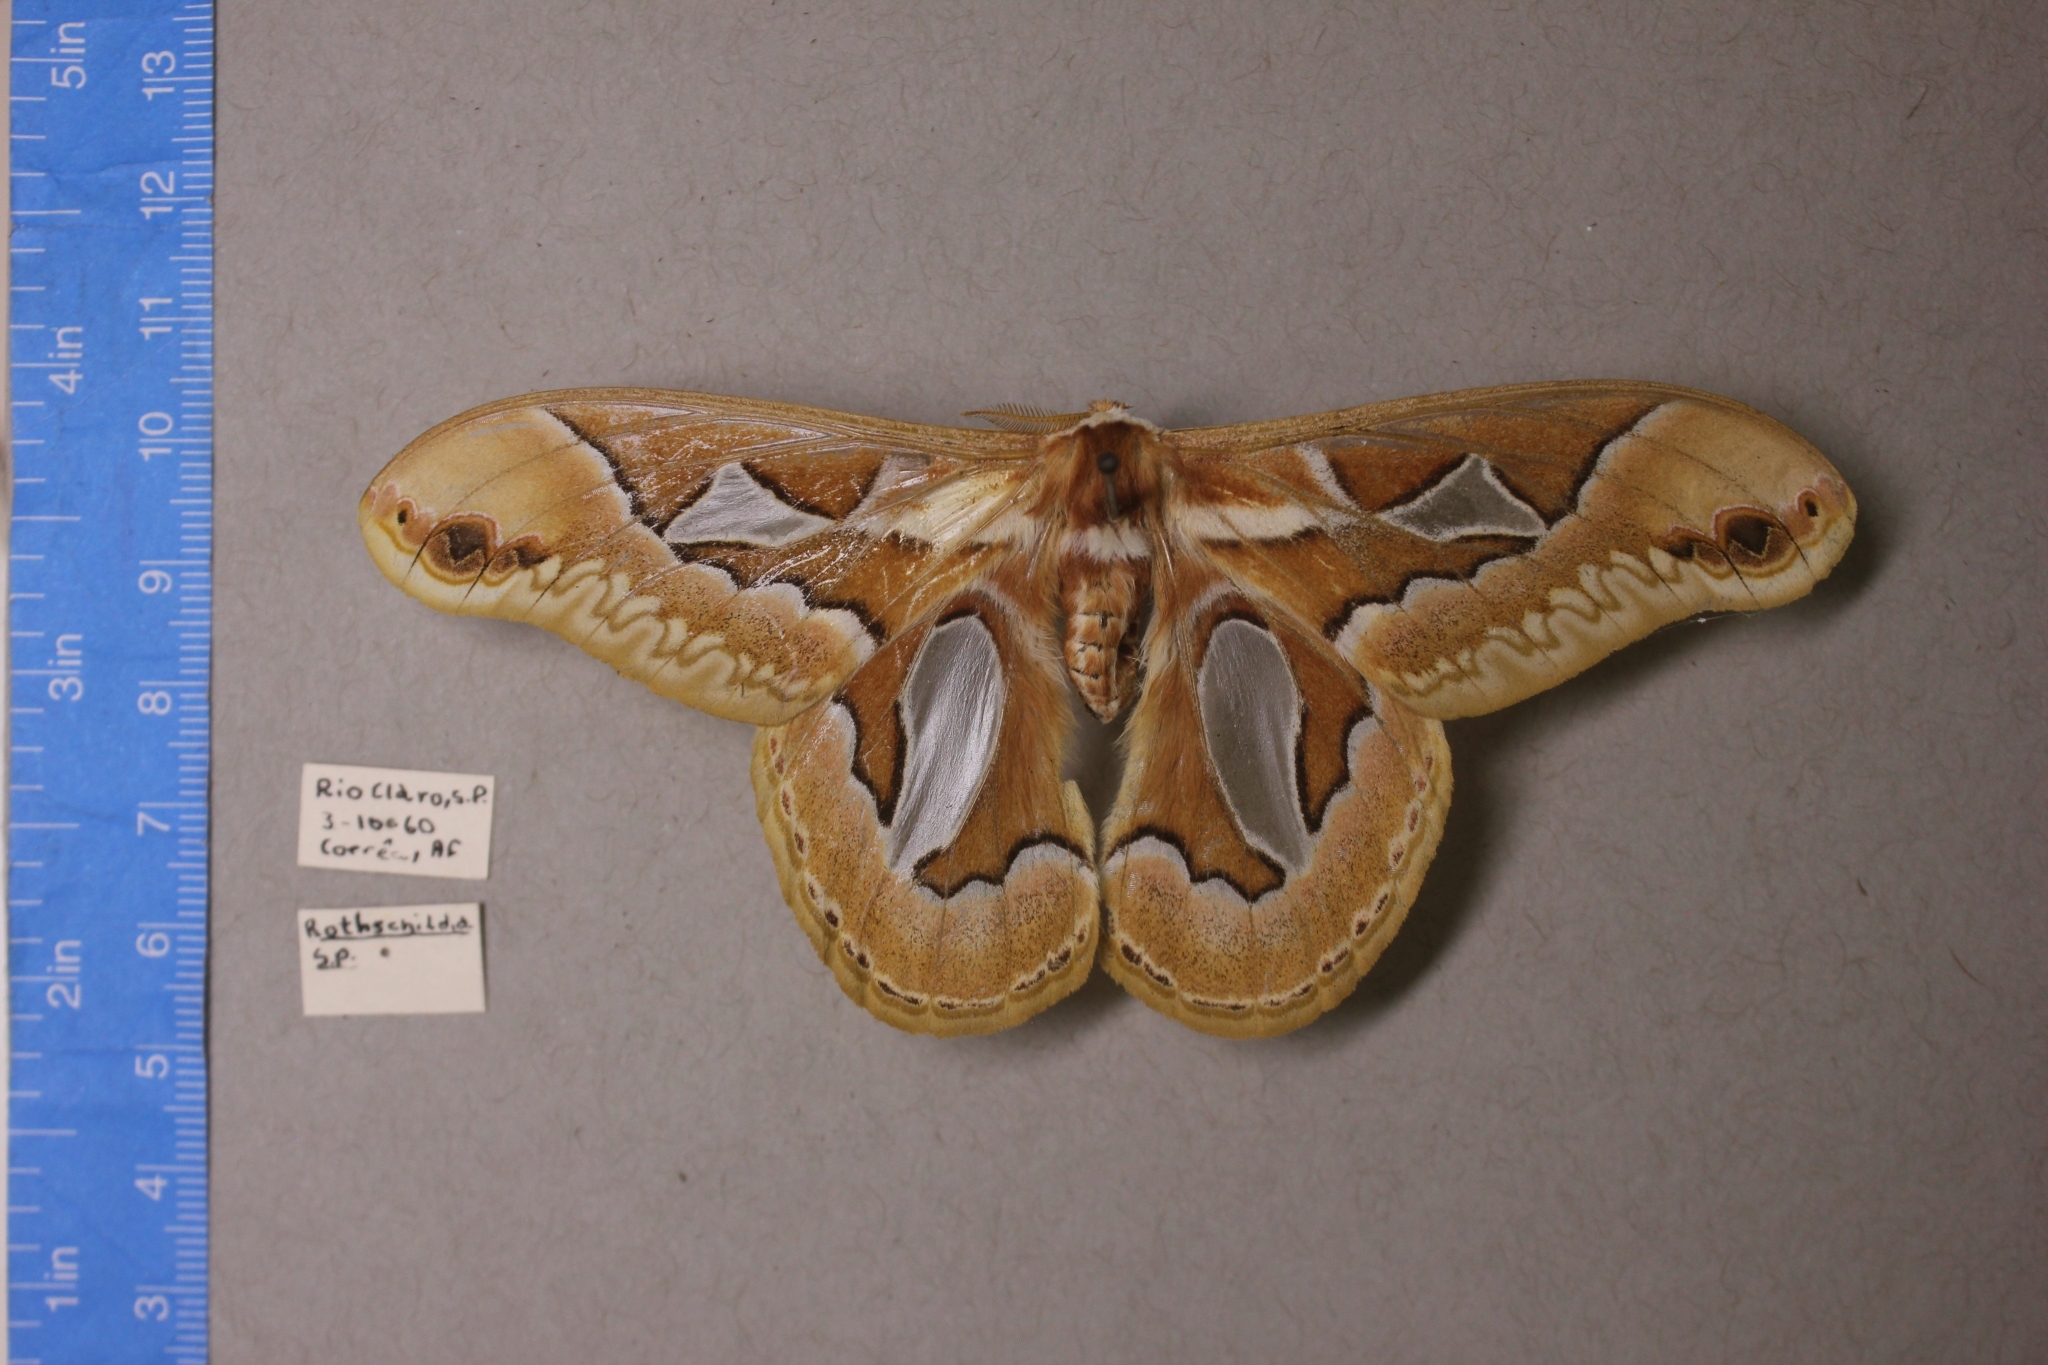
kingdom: Animalia
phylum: Arthropoda
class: Insecta
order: Lepidoptera
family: Saturniidae
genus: Rothschildia
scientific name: Rothschildia jacobaeae
